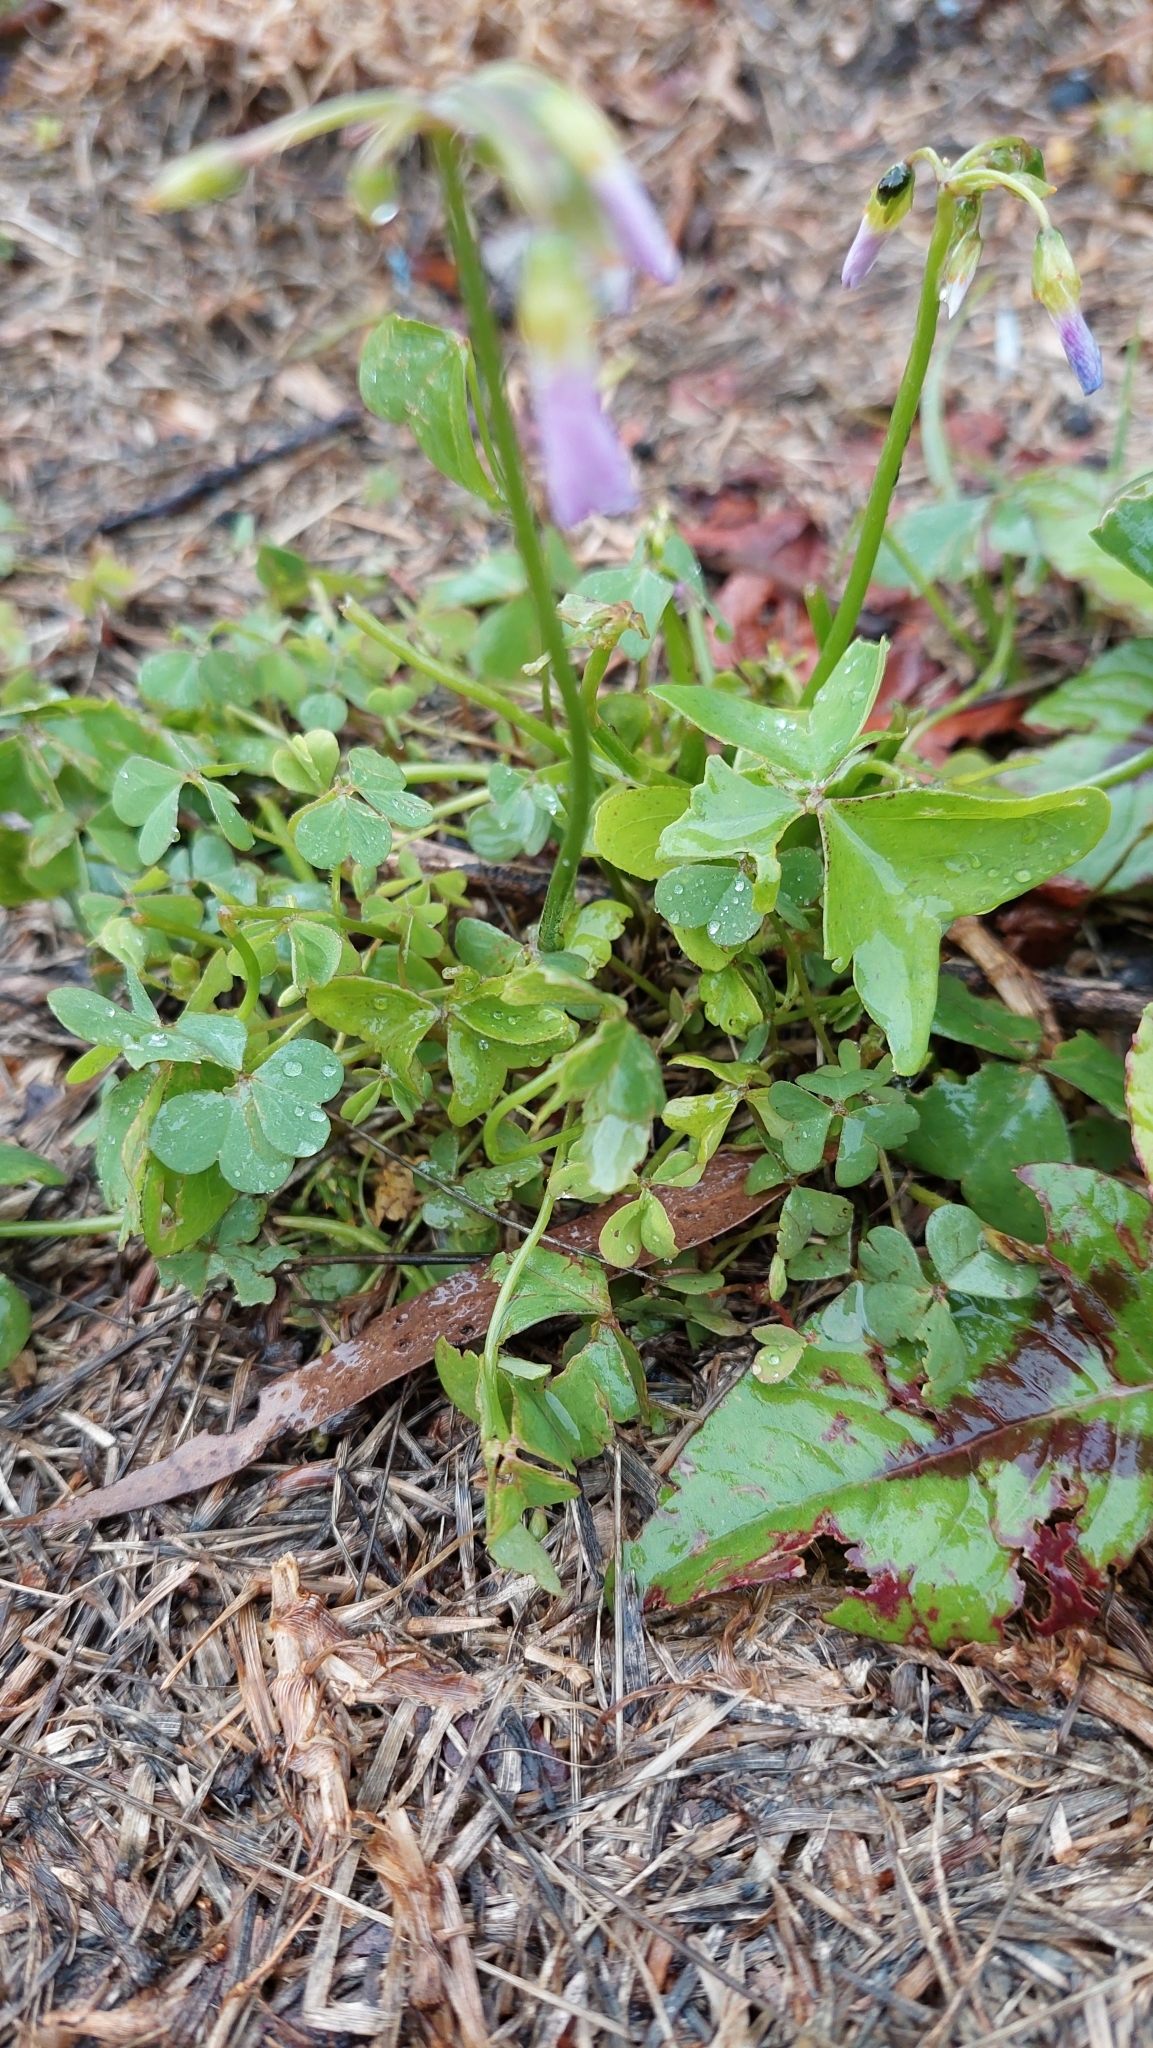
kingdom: Plantae
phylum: Tracheophyta
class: Magnoliopsida
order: Oxalidales
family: Oxalidaceae
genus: Oxalis
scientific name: Oxalis latifolia
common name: Garden pink-sorrel
